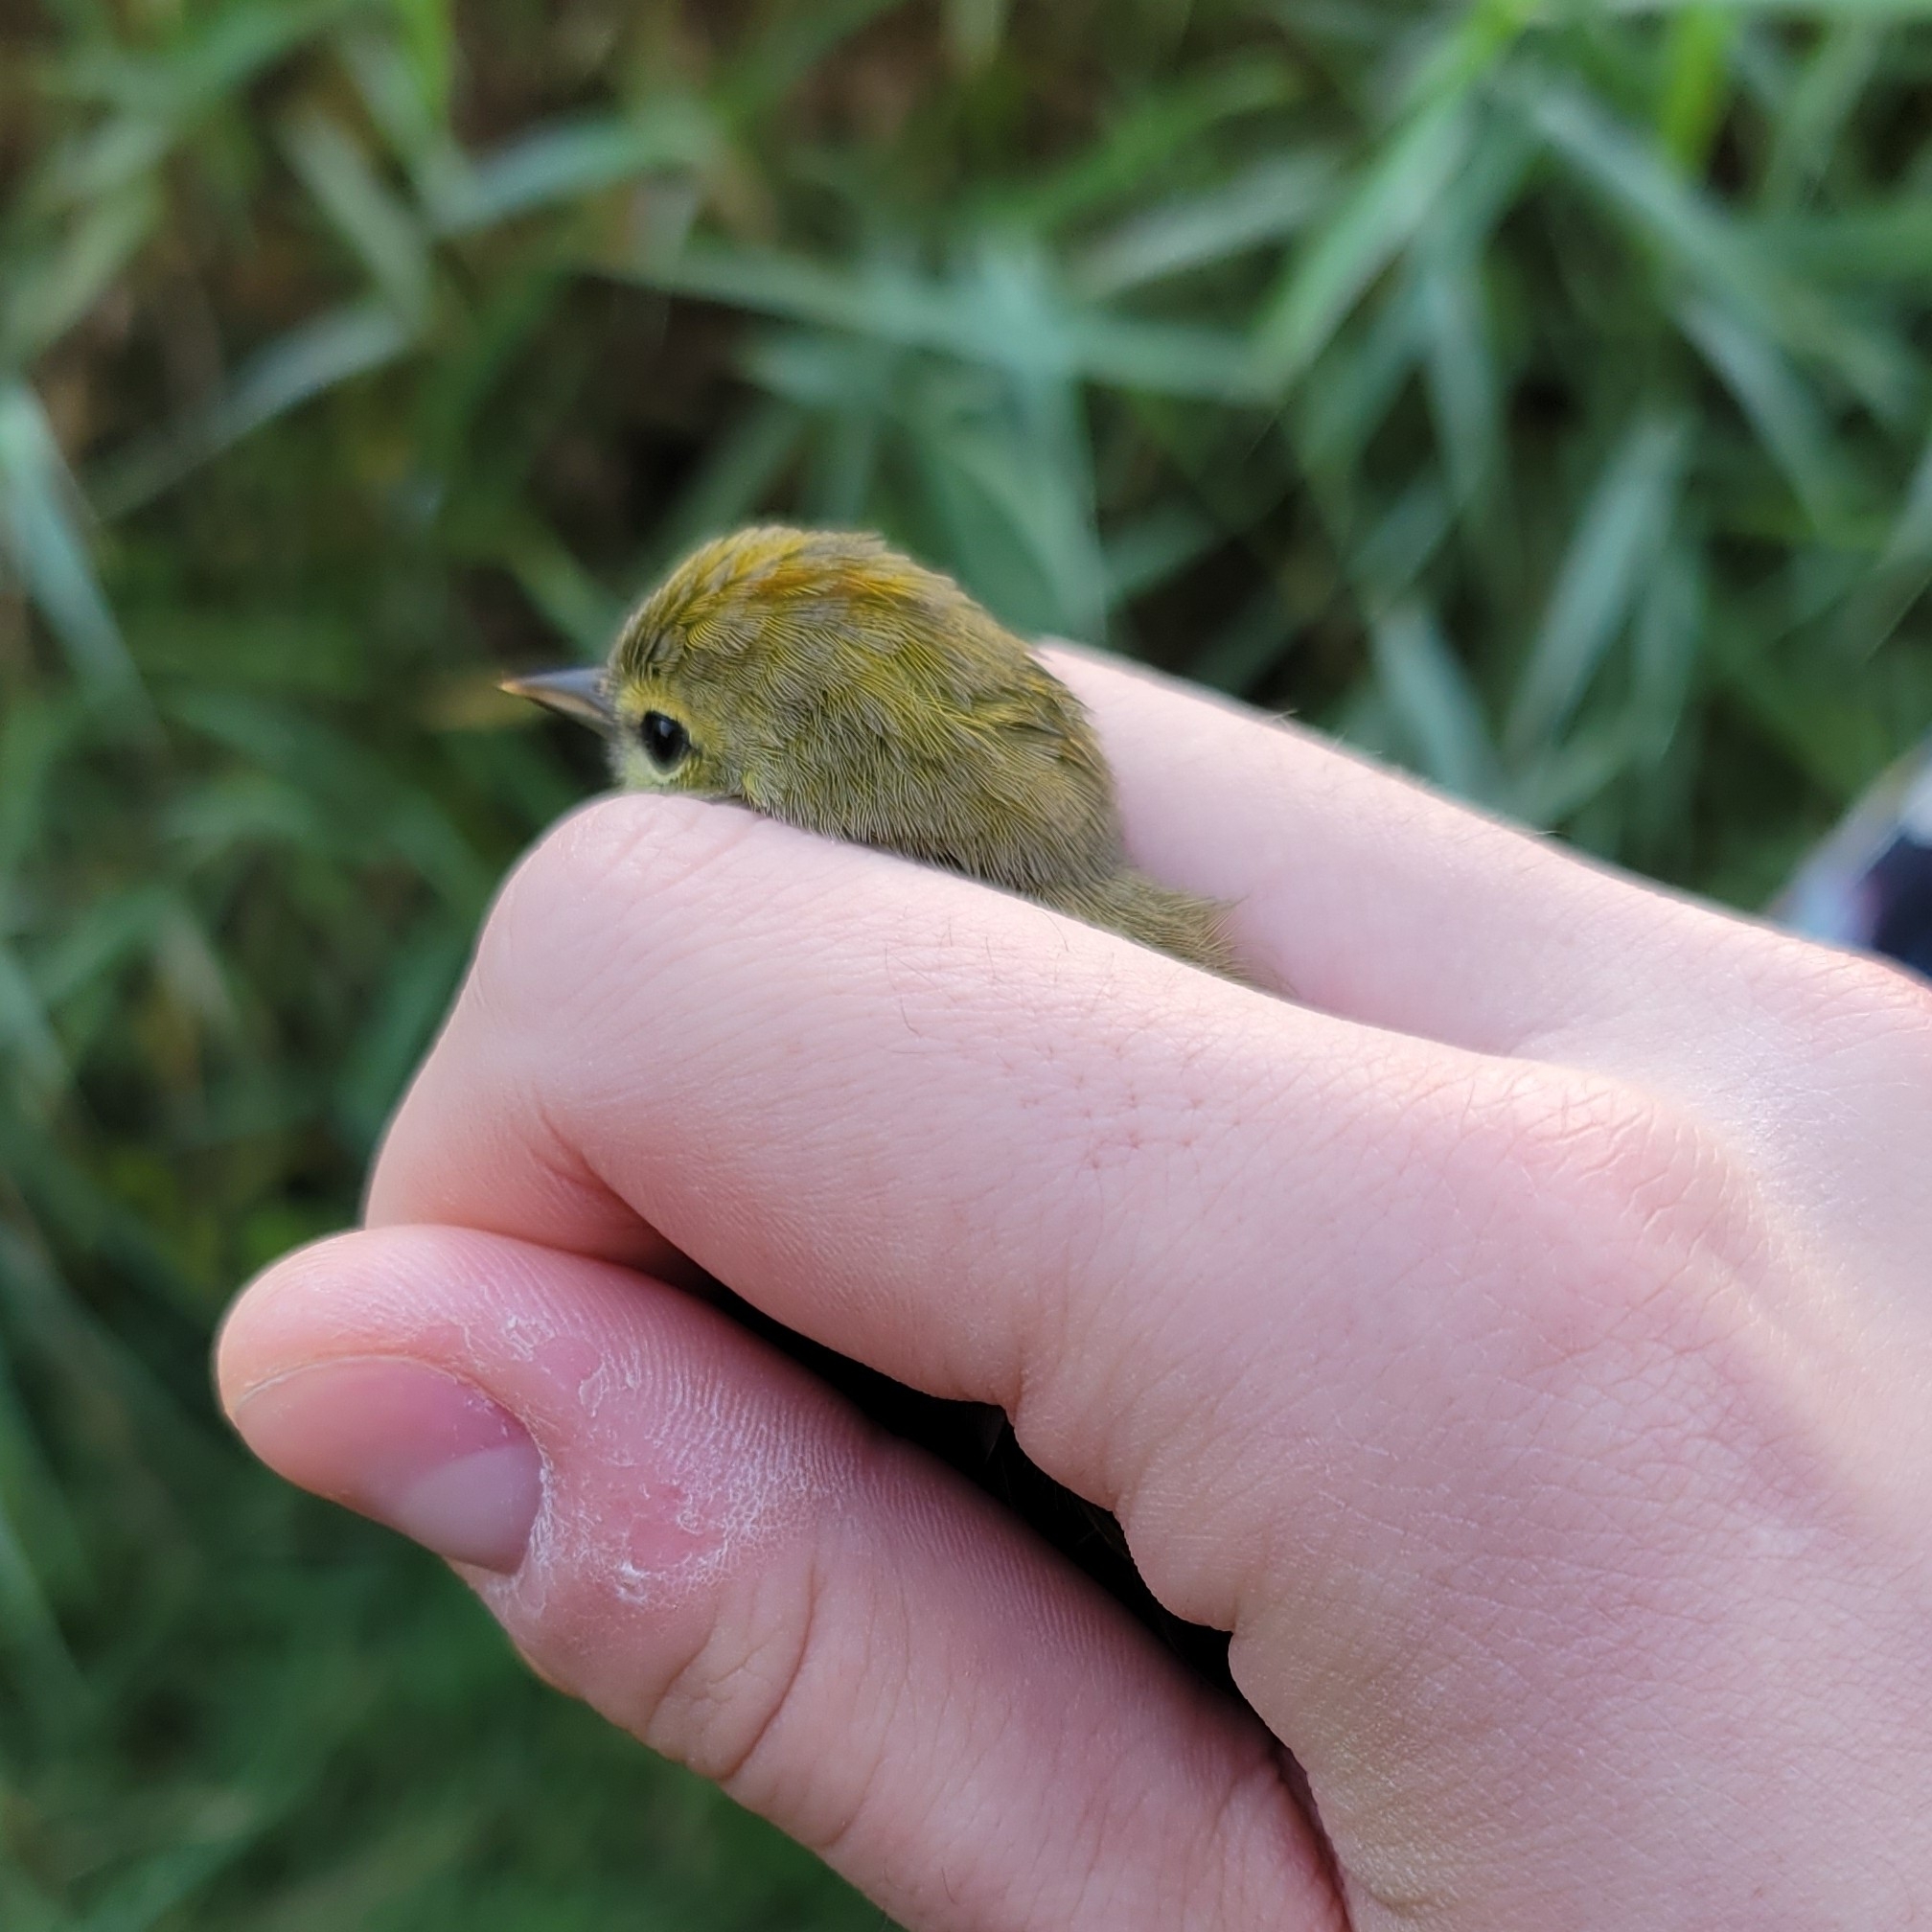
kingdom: Animalia
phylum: Chordata
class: Aves
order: Passeriformes
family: Parulidae
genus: Leiothlypis
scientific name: Leiothlypis celata
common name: Orange-crowned warbler
